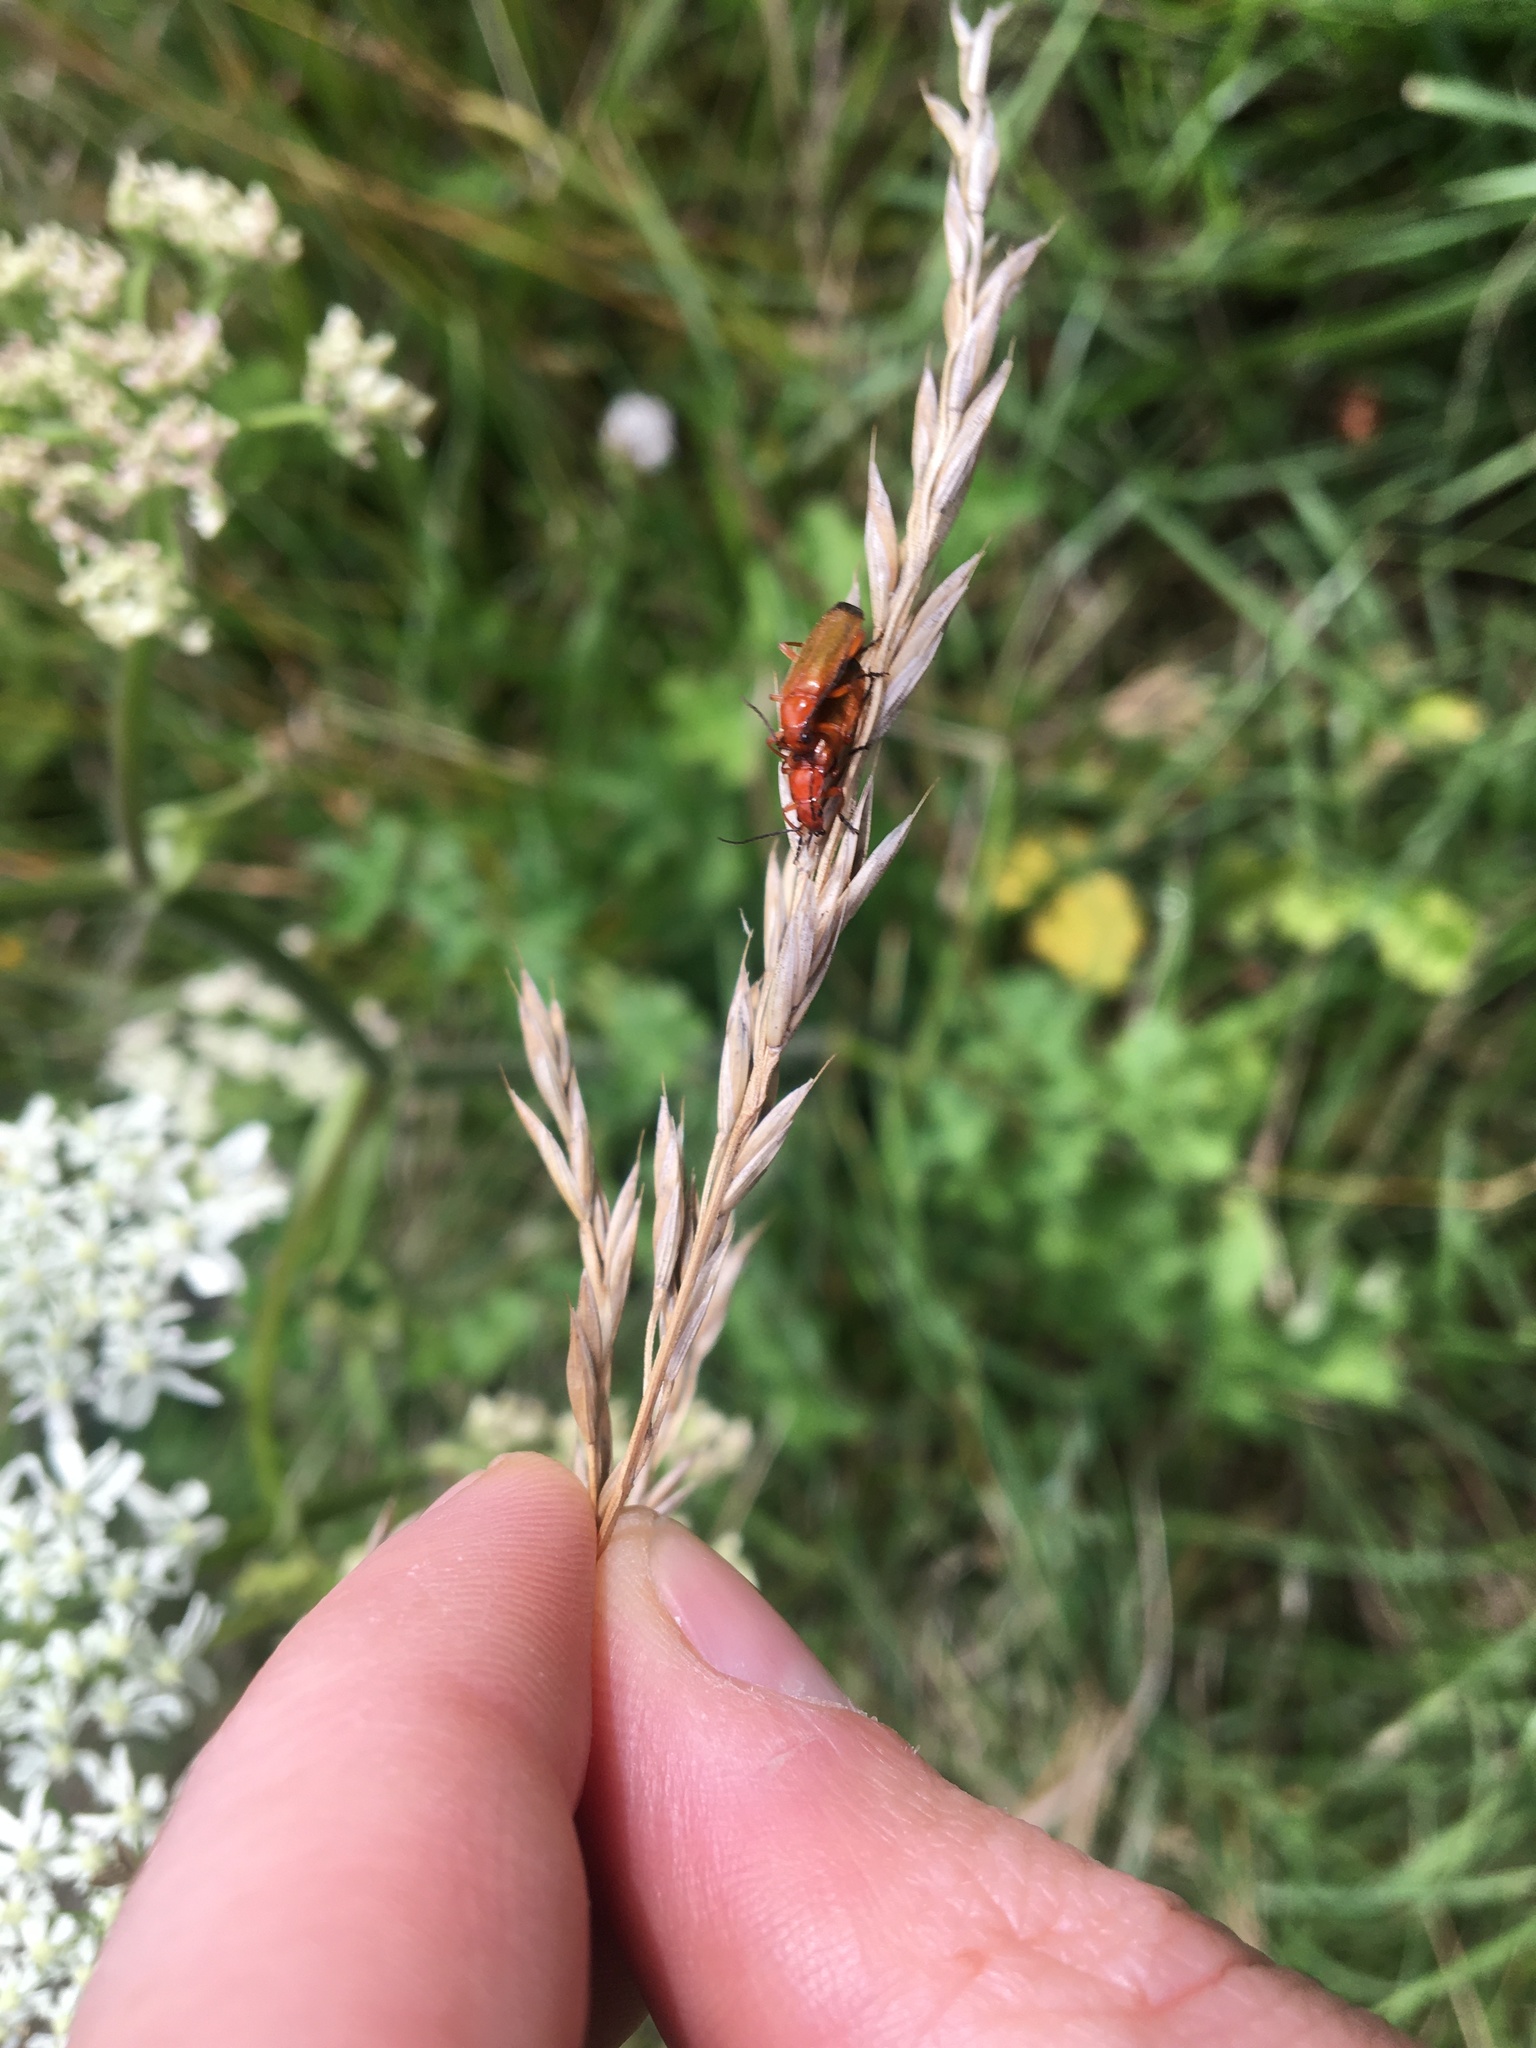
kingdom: Animalia
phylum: Arthropoda
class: Insecta
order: Coleoptera
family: Cantharidae
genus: Rhagonycha
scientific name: Rhagonycha fulva
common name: Common red soldier beetle
